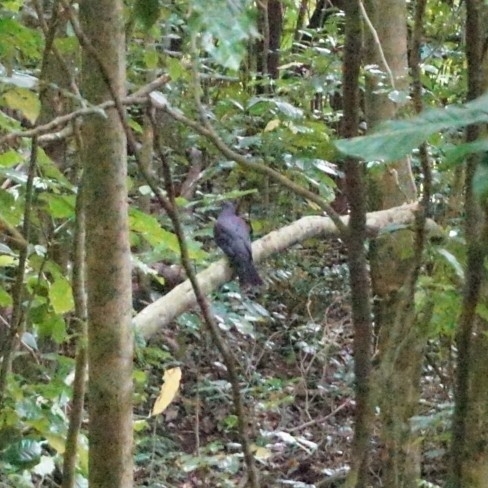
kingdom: Animalia
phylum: Chordata
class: Aves
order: Columbiformes
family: Columbidae
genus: Hemiphaga
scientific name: Hemiphaga novaeseelandiae
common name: New zealand pigeon
